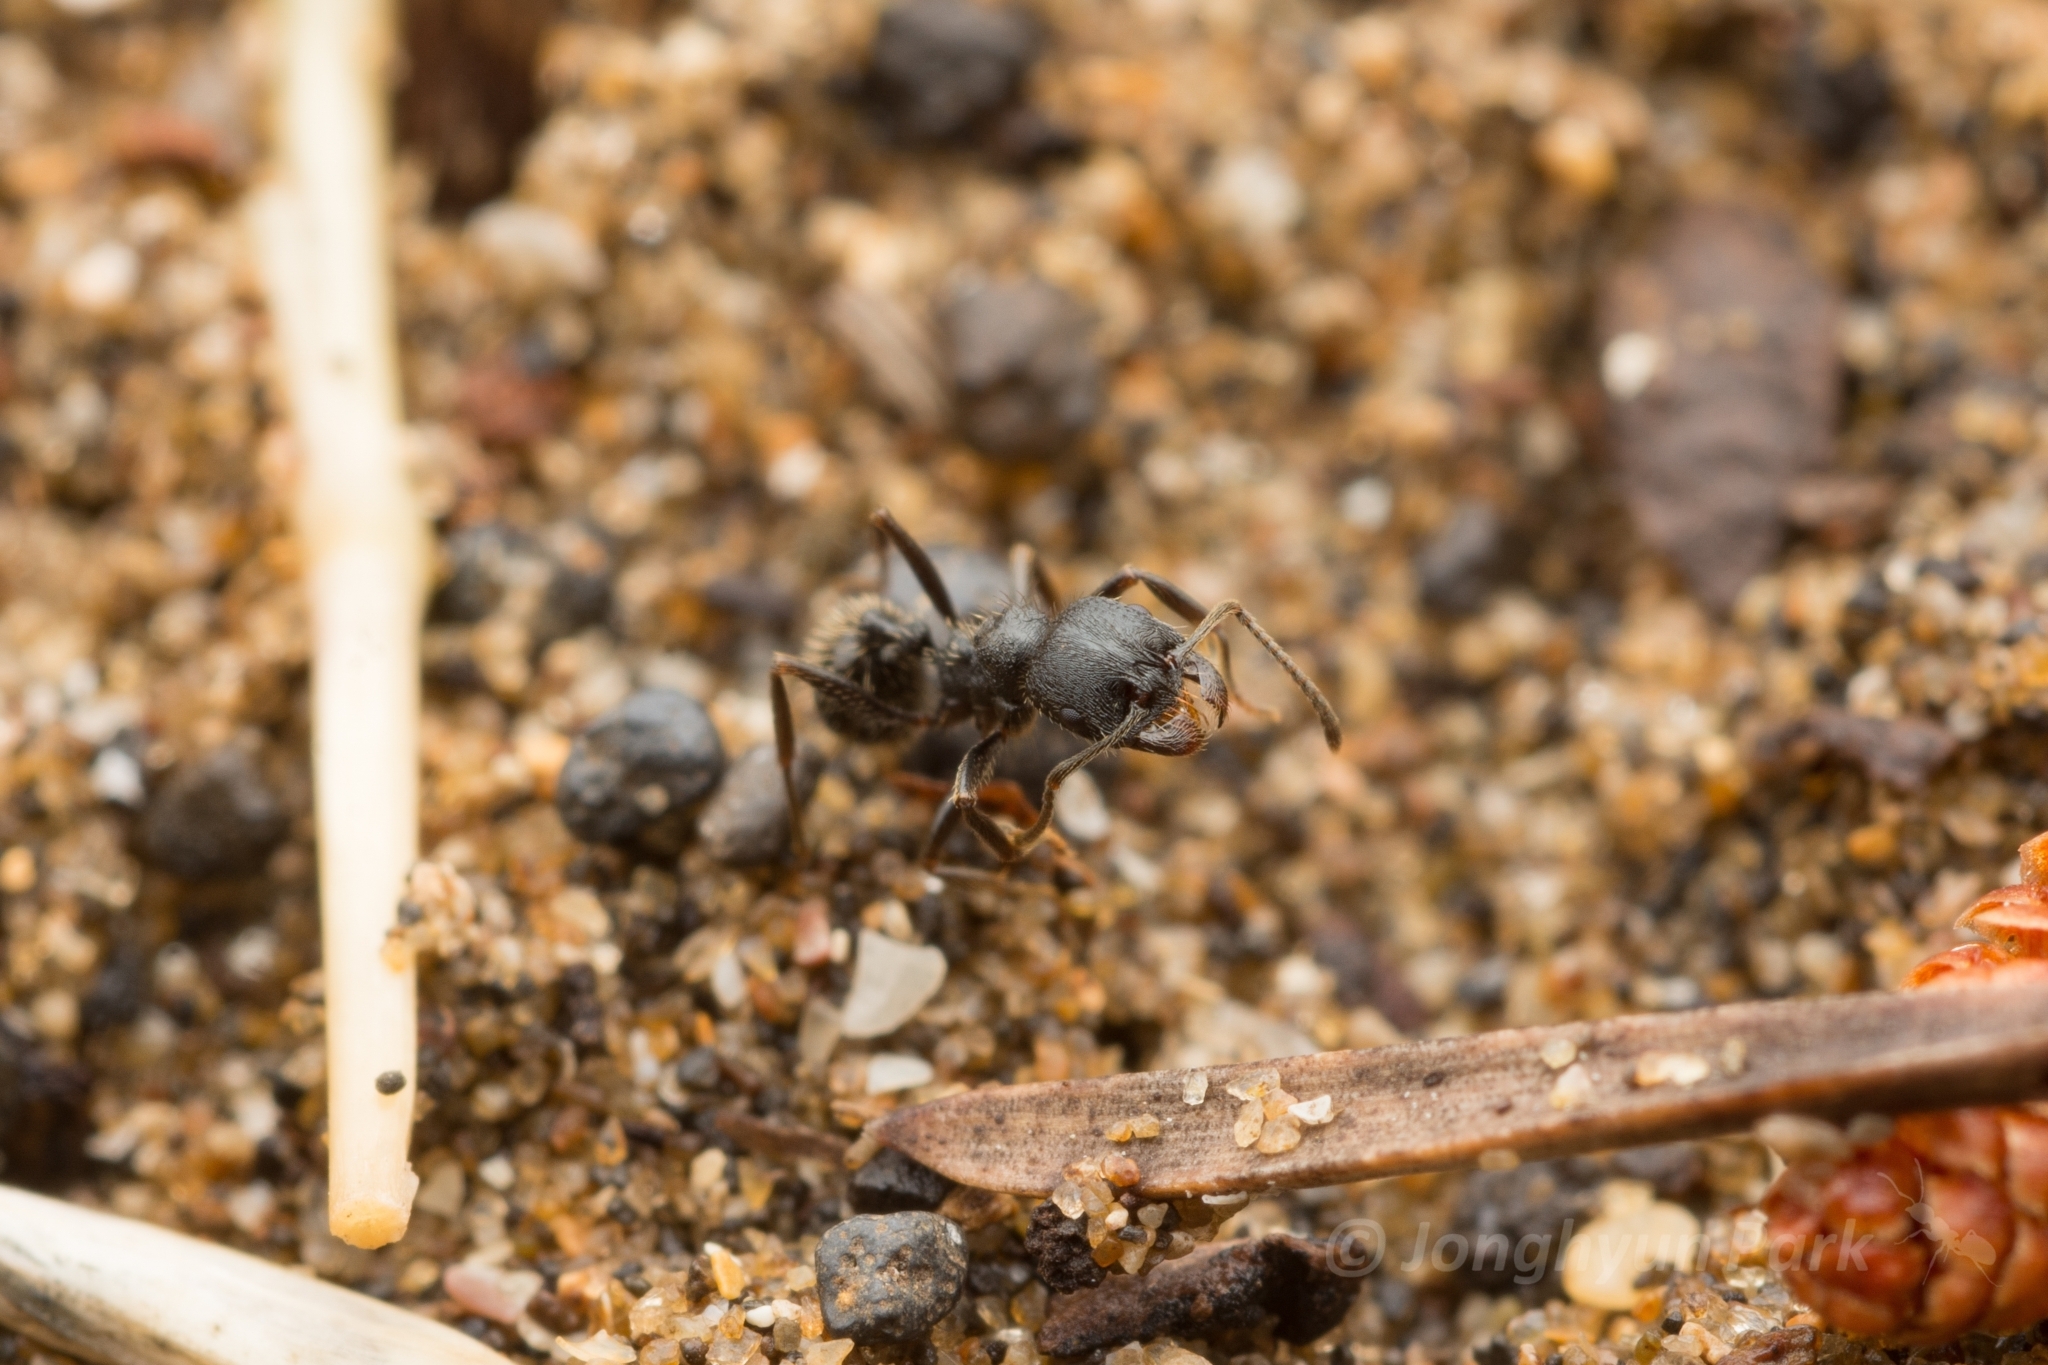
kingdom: Animalia
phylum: Arthropoda
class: Insecta
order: Hymenoptera
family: Formicidae
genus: Messor
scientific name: Messor aciculatus
